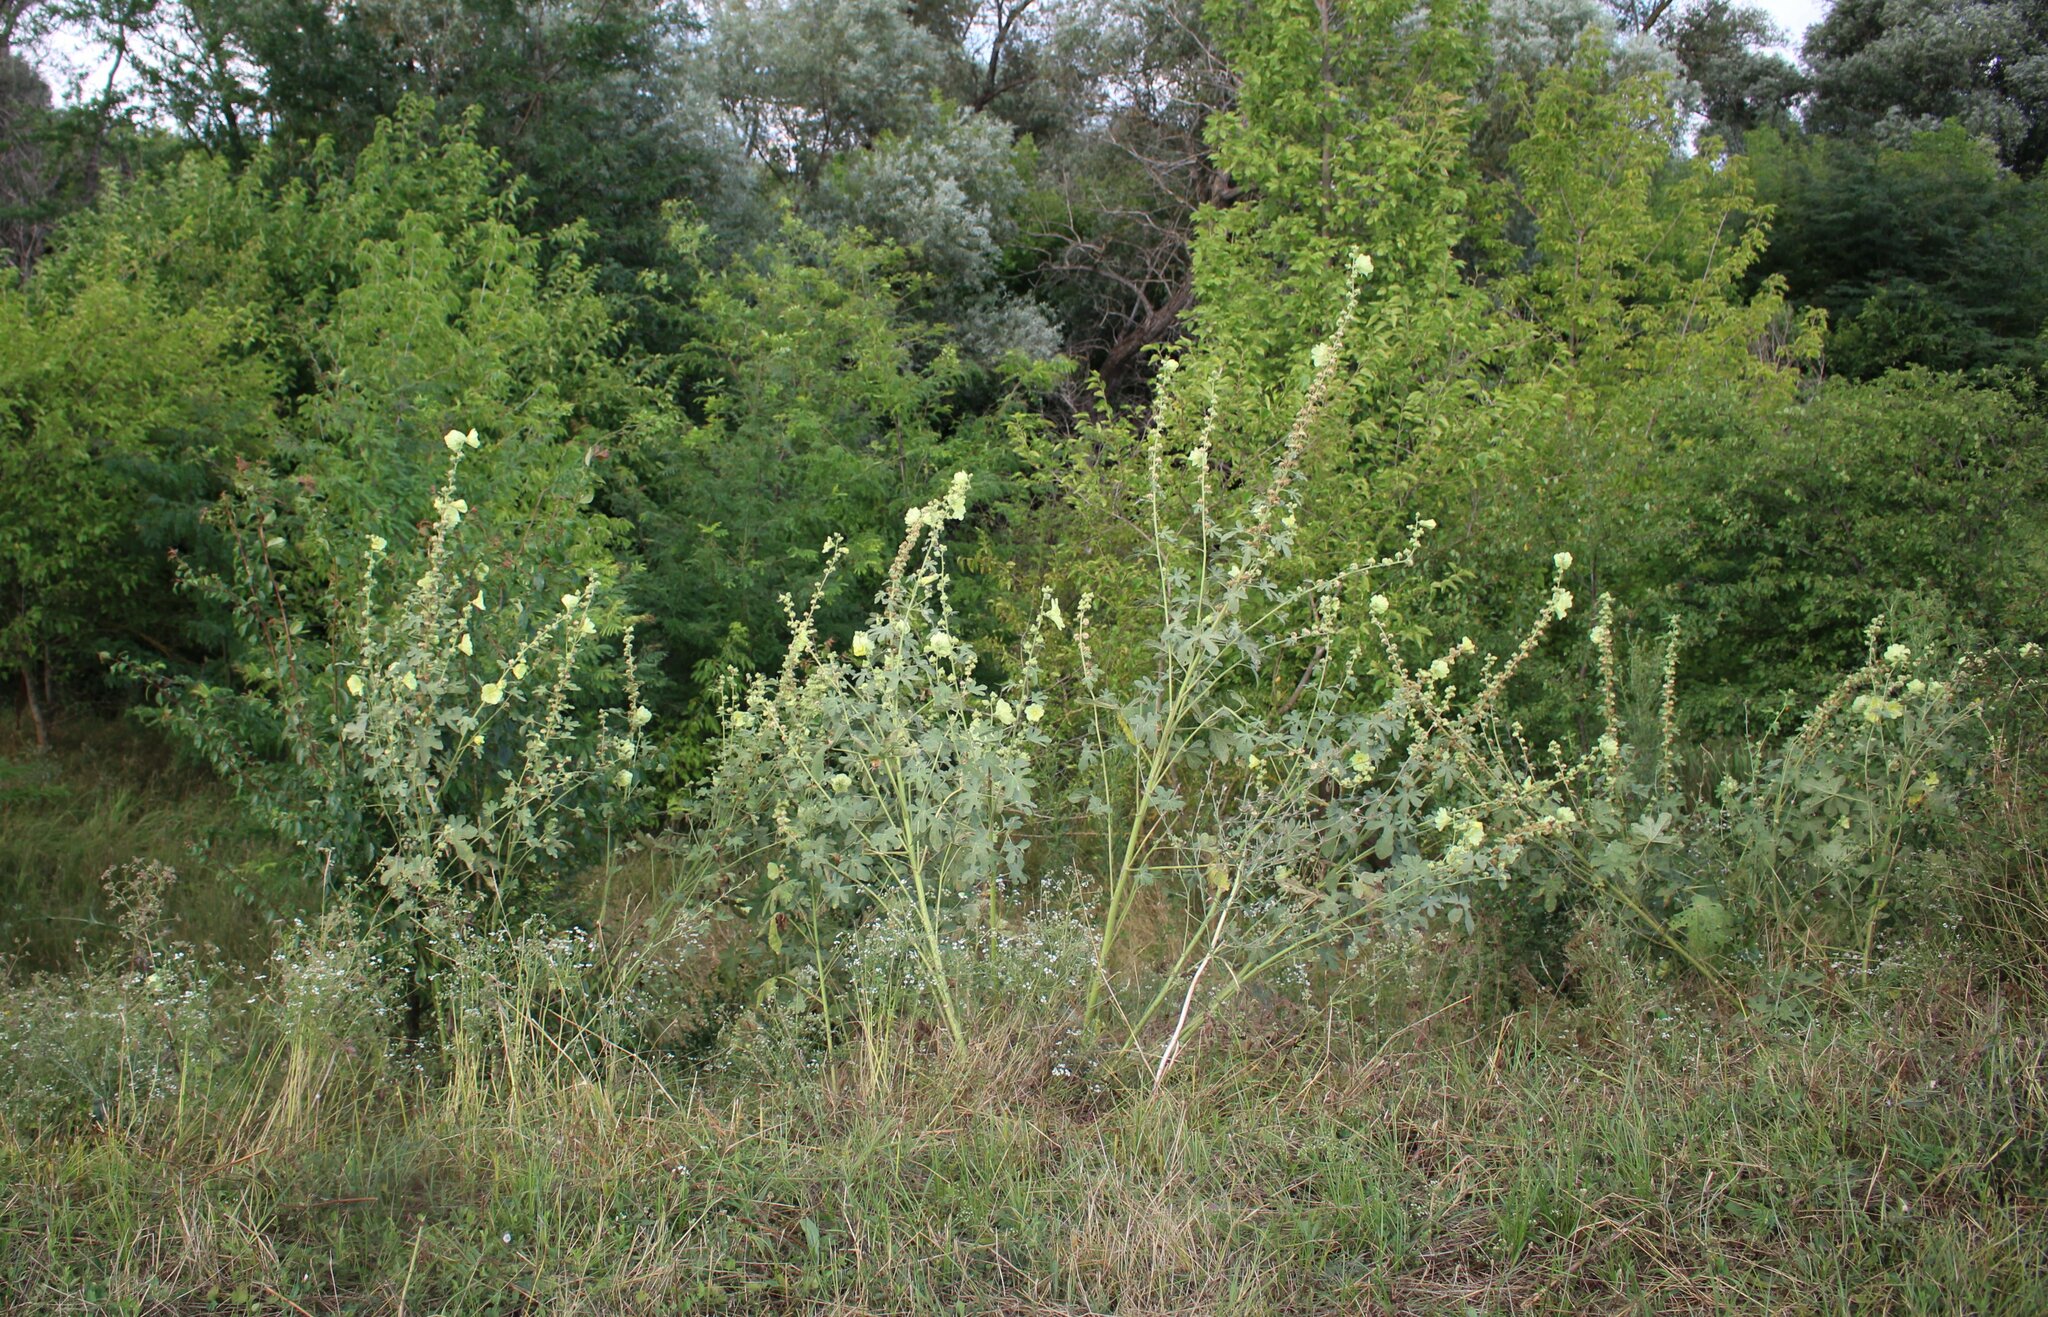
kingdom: Plantae
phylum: Tracheophyta
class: Magnoliopsida
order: Malvales
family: Malvaceae
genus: Alcea
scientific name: Alcea rugosa
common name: Russian hollyhock
